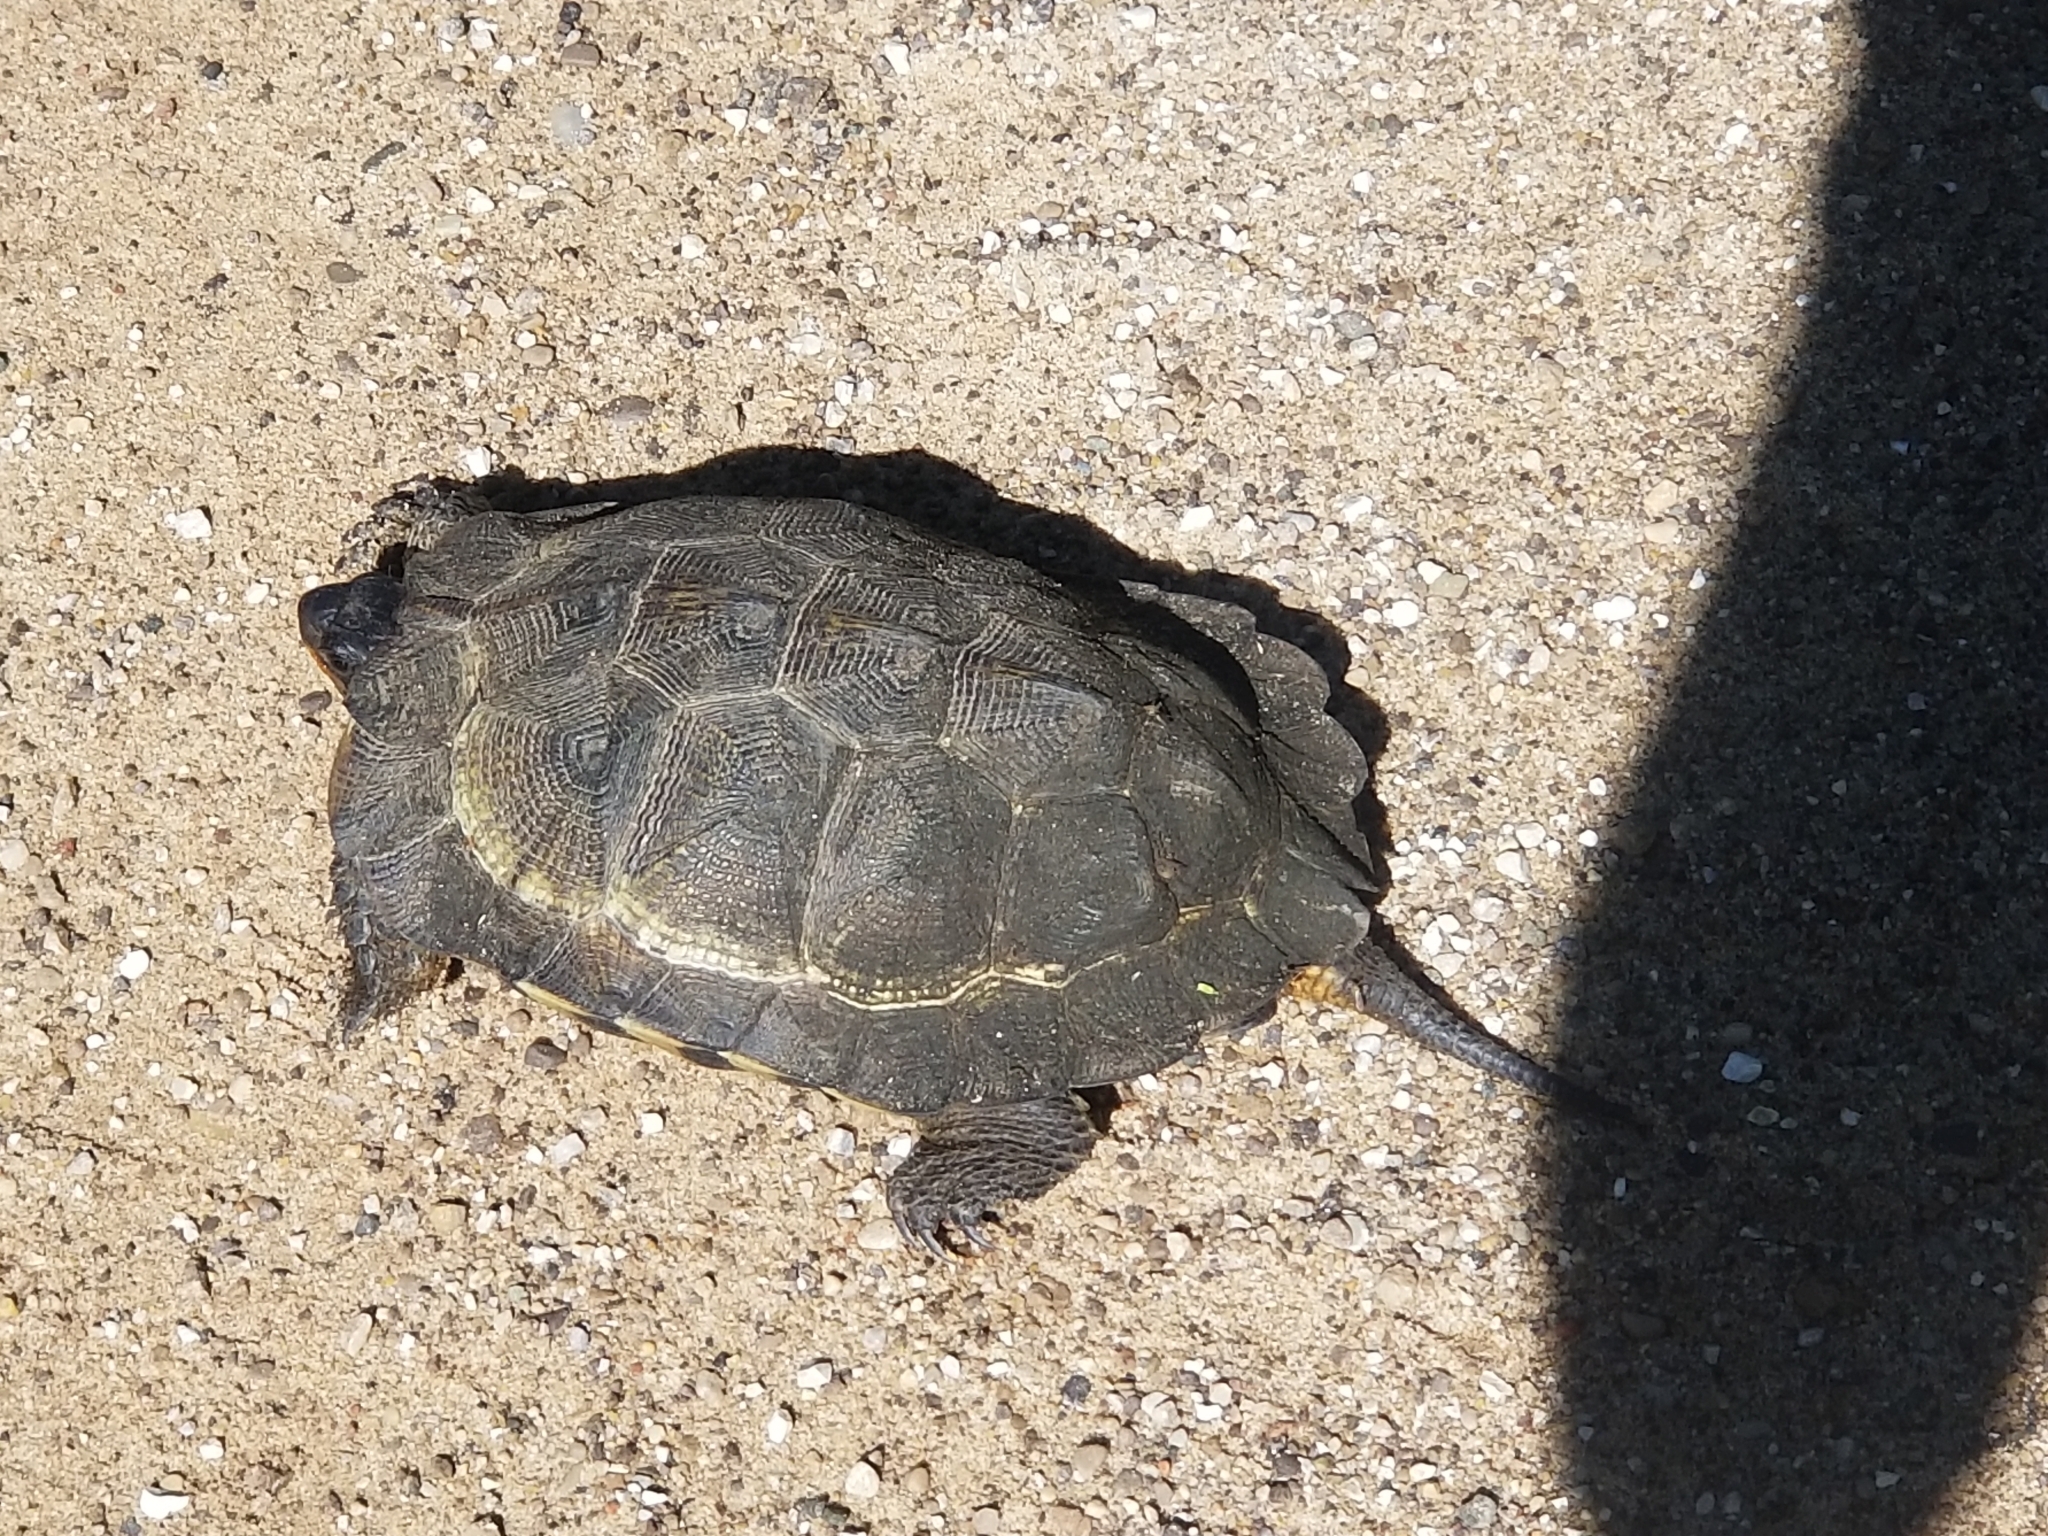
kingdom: Animalia
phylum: Chordata
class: Testudines
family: Emydidae
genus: Glyptemys
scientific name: Glyptemys insculpta
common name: Wood turtle
